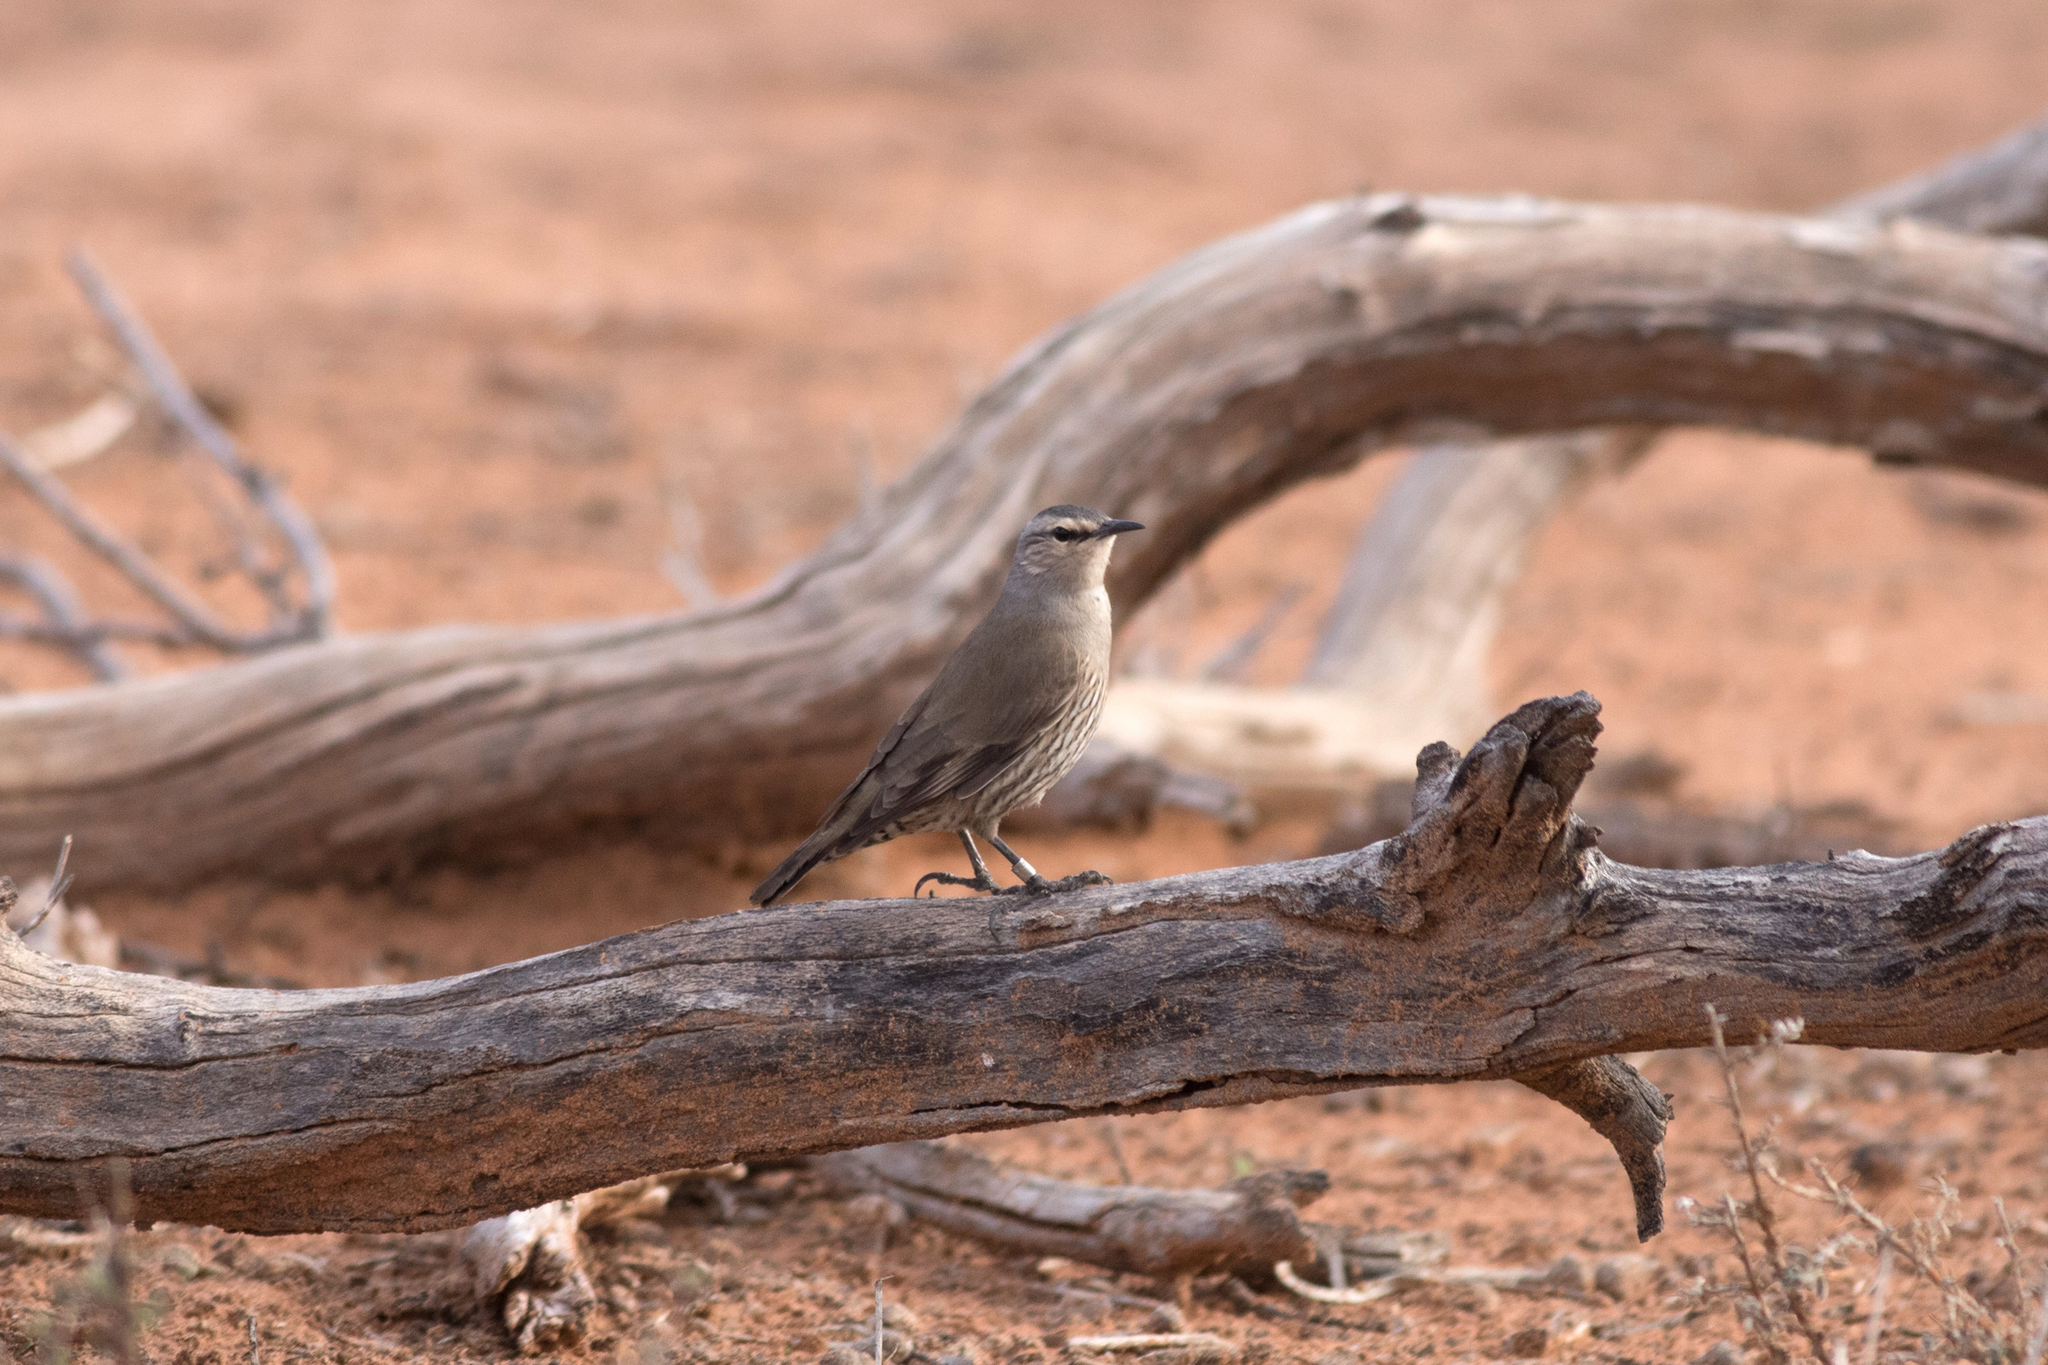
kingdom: Animalia
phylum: Chordata
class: Aves
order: Passeriformes
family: Climacteridae
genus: Climacteris
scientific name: Climacteris picumnus
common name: Brown treecreeper
